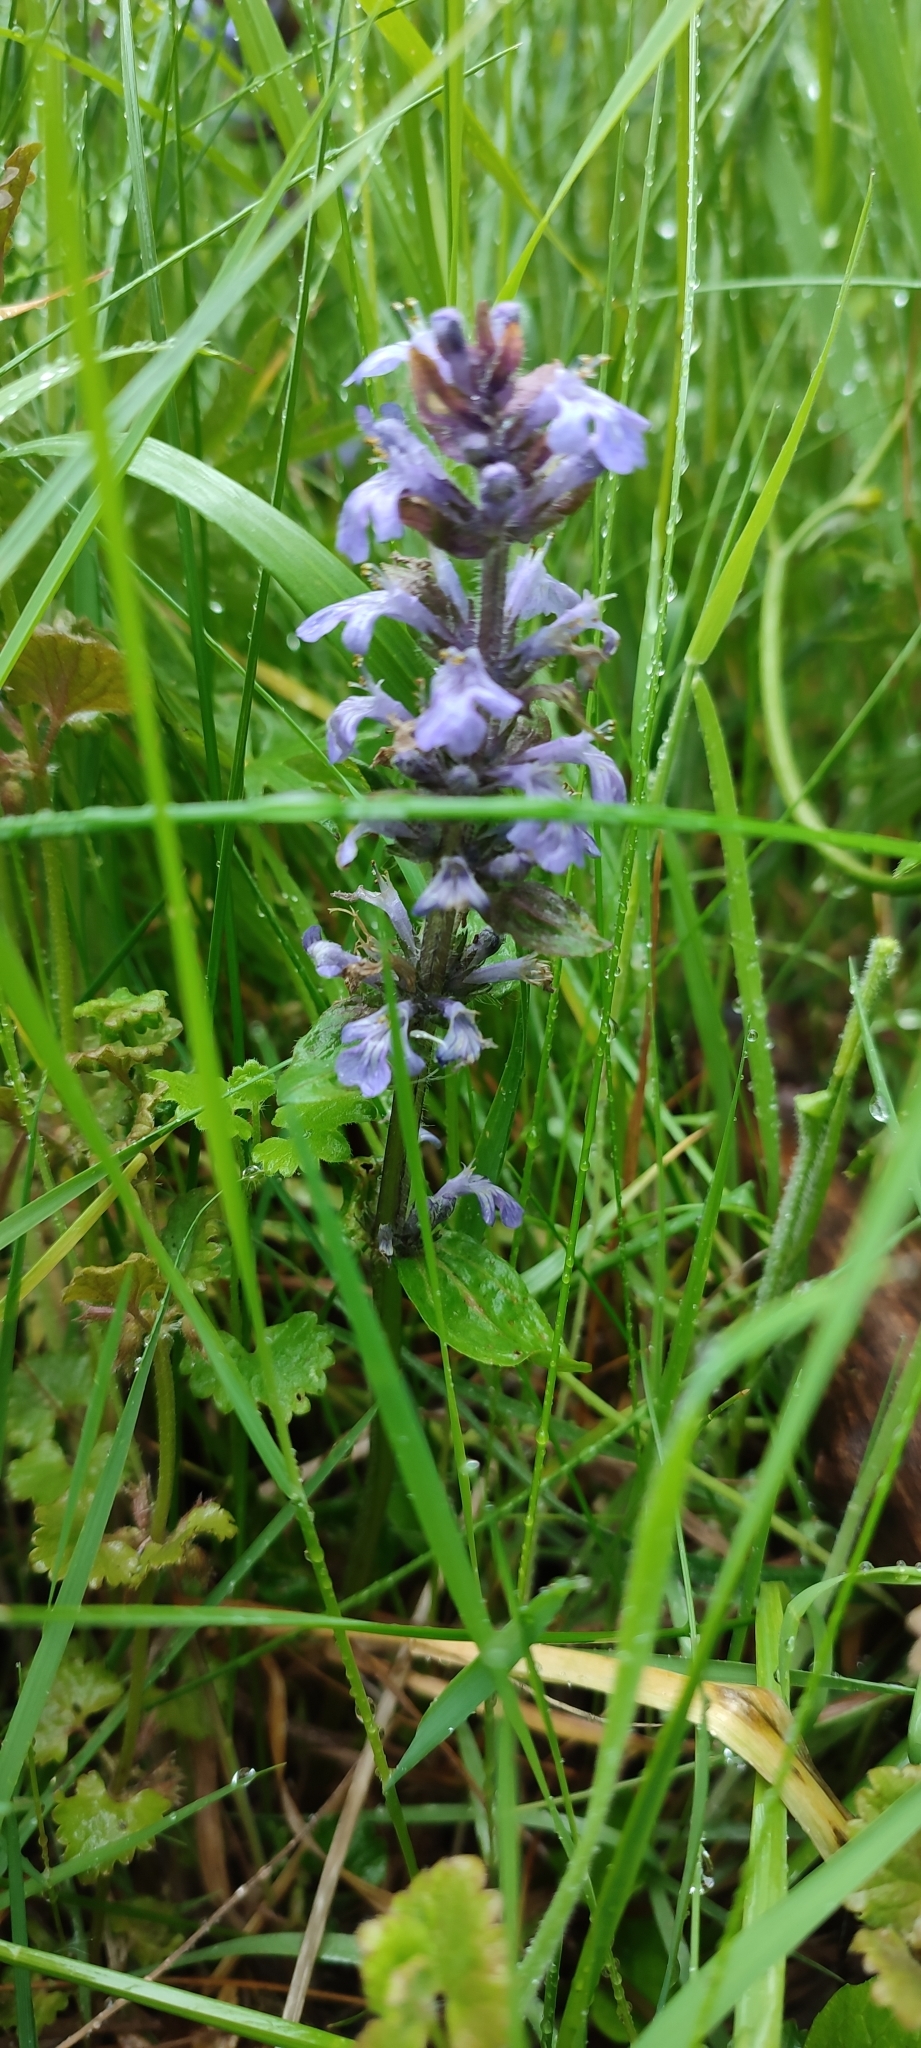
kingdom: Plantae
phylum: Tracheophyta
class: Magnoliopsida
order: Lamiales
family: Lamiaceae
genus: Ajuga
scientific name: Ajuga reptans
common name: Bugle
